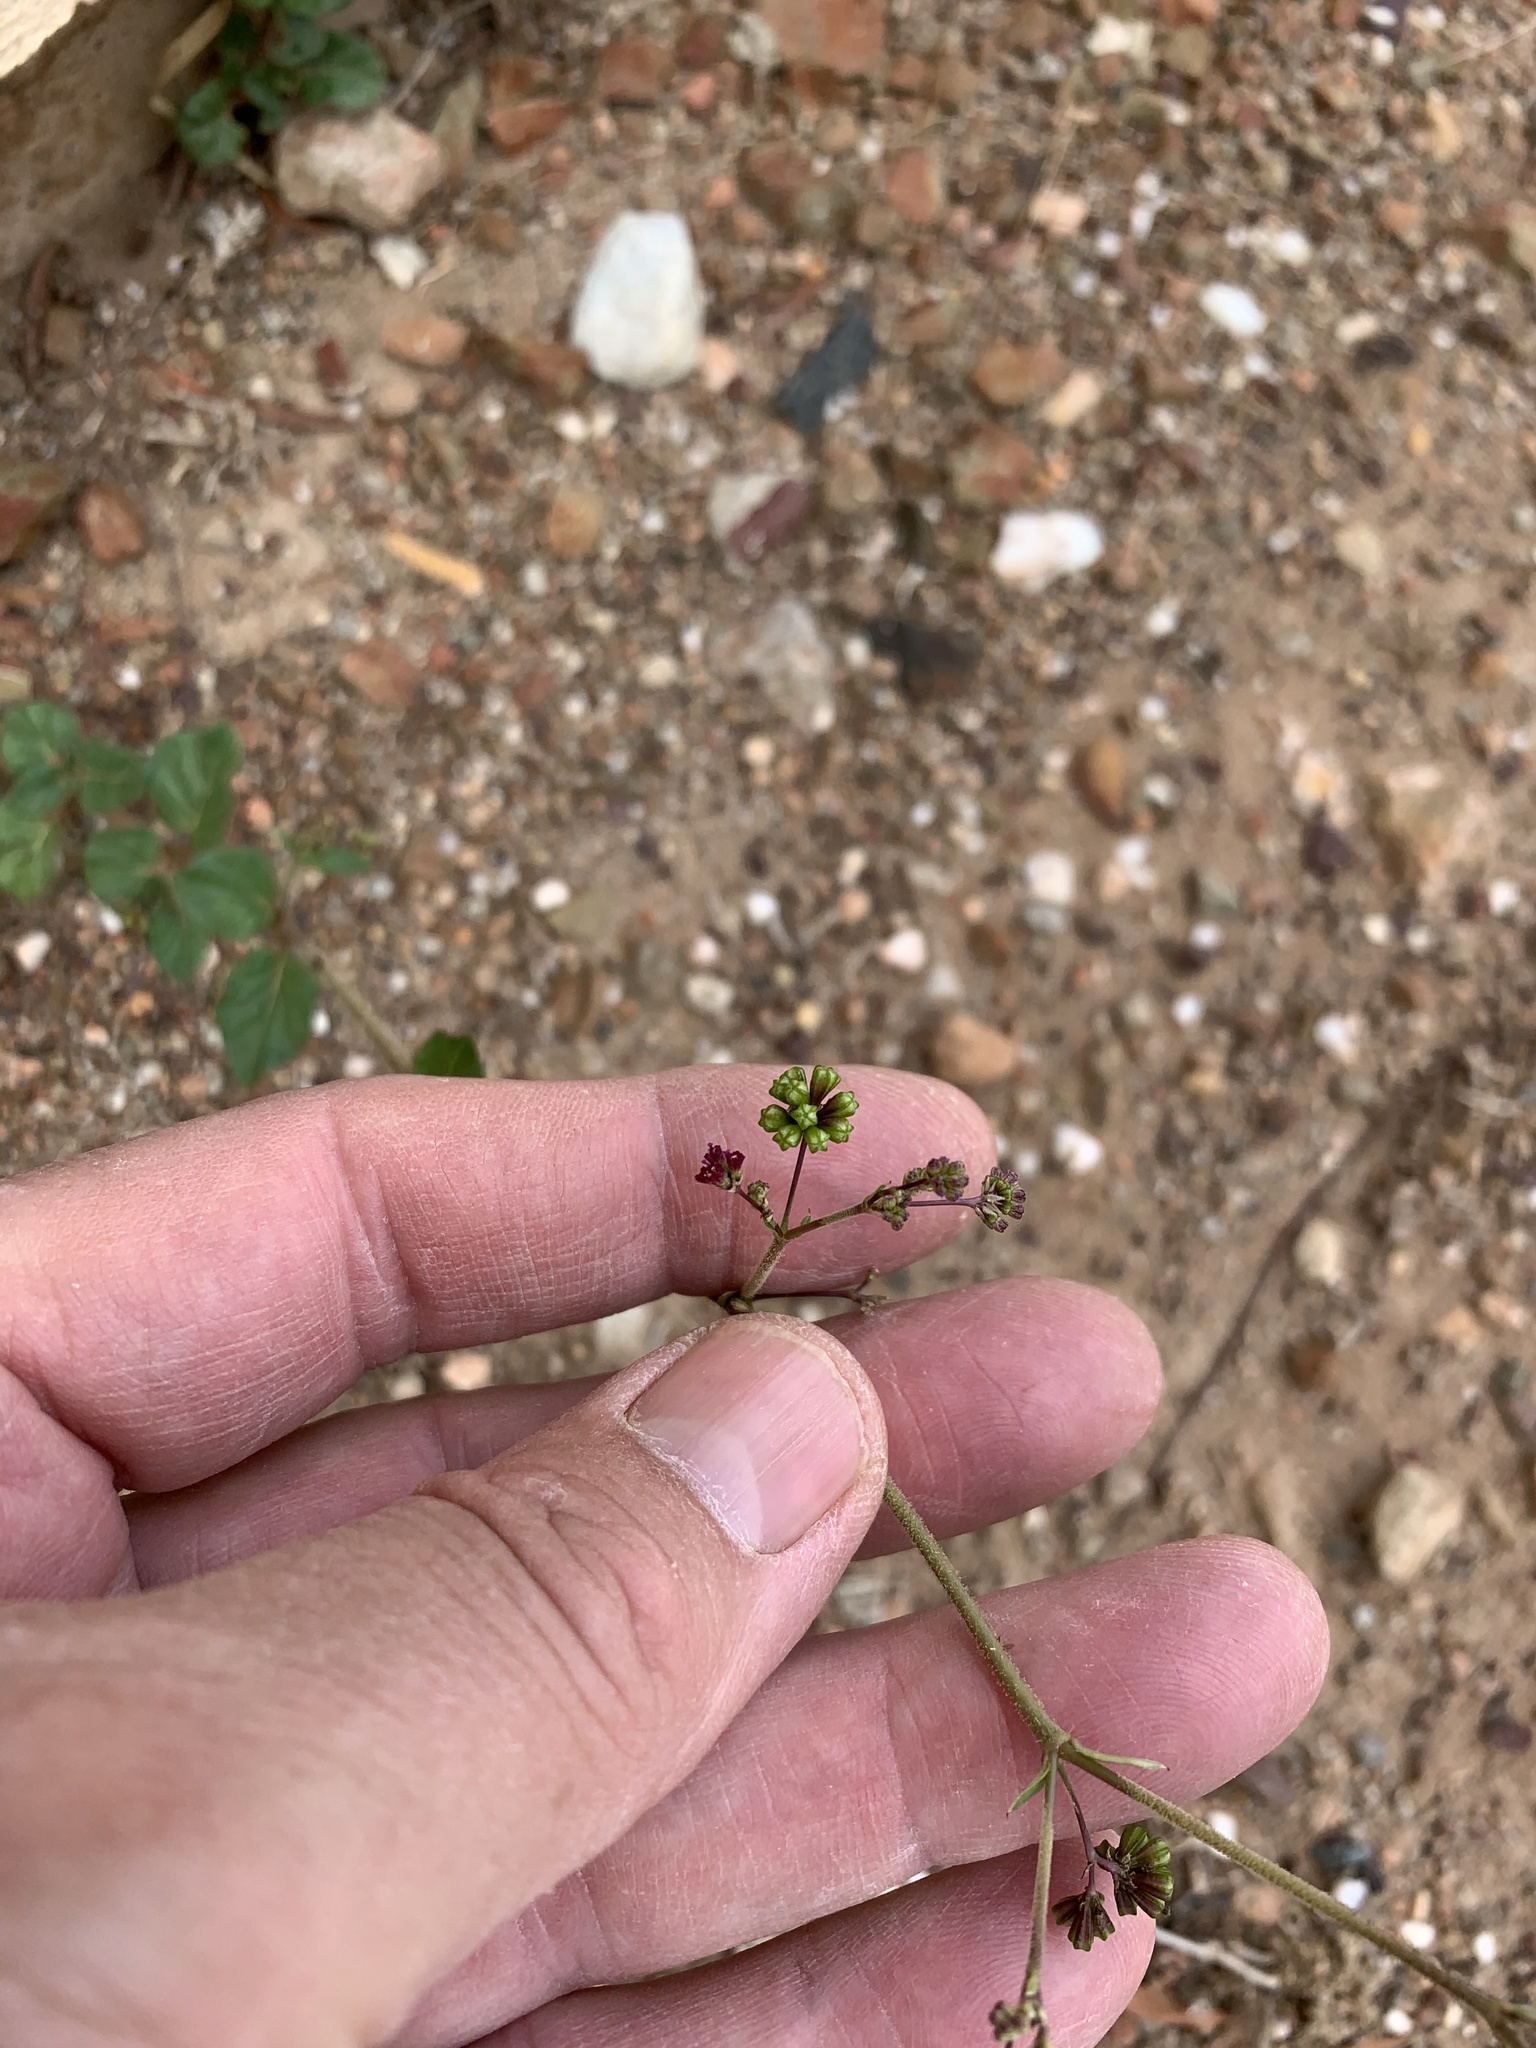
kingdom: Plantae
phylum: Tracheophyta
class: Magnoliopsida
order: Caryophyllales
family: Nyctaginaceae
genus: Boerhavia
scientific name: Boerhavia erecta
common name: Erect spiderling
